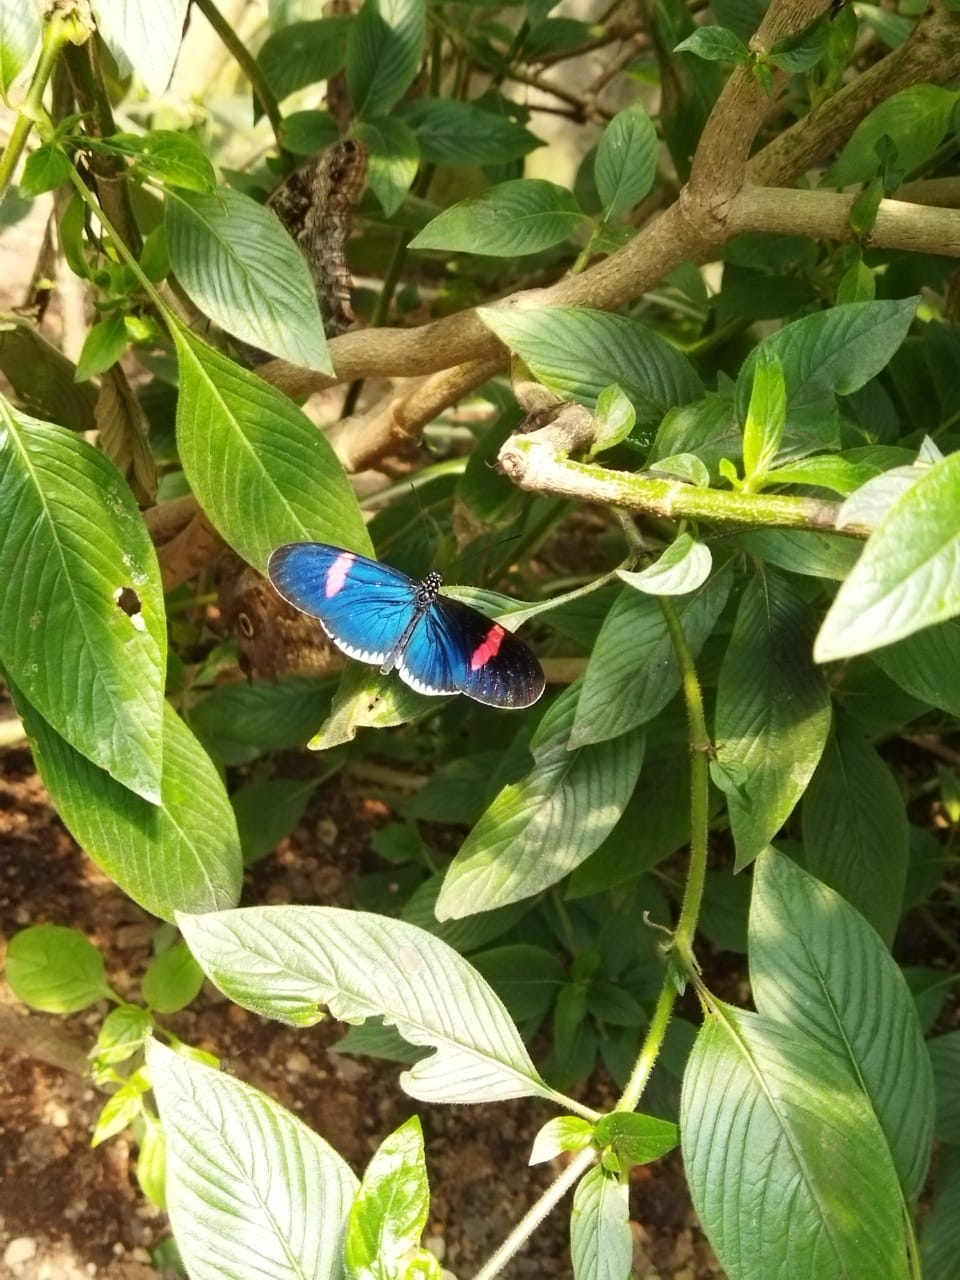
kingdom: Animalia
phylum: Arthropoda
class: Insecta
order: Lepidoptera
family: Nymphalidae
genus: Heliconius
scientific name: Heliconius erato
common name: Common patch longwing
